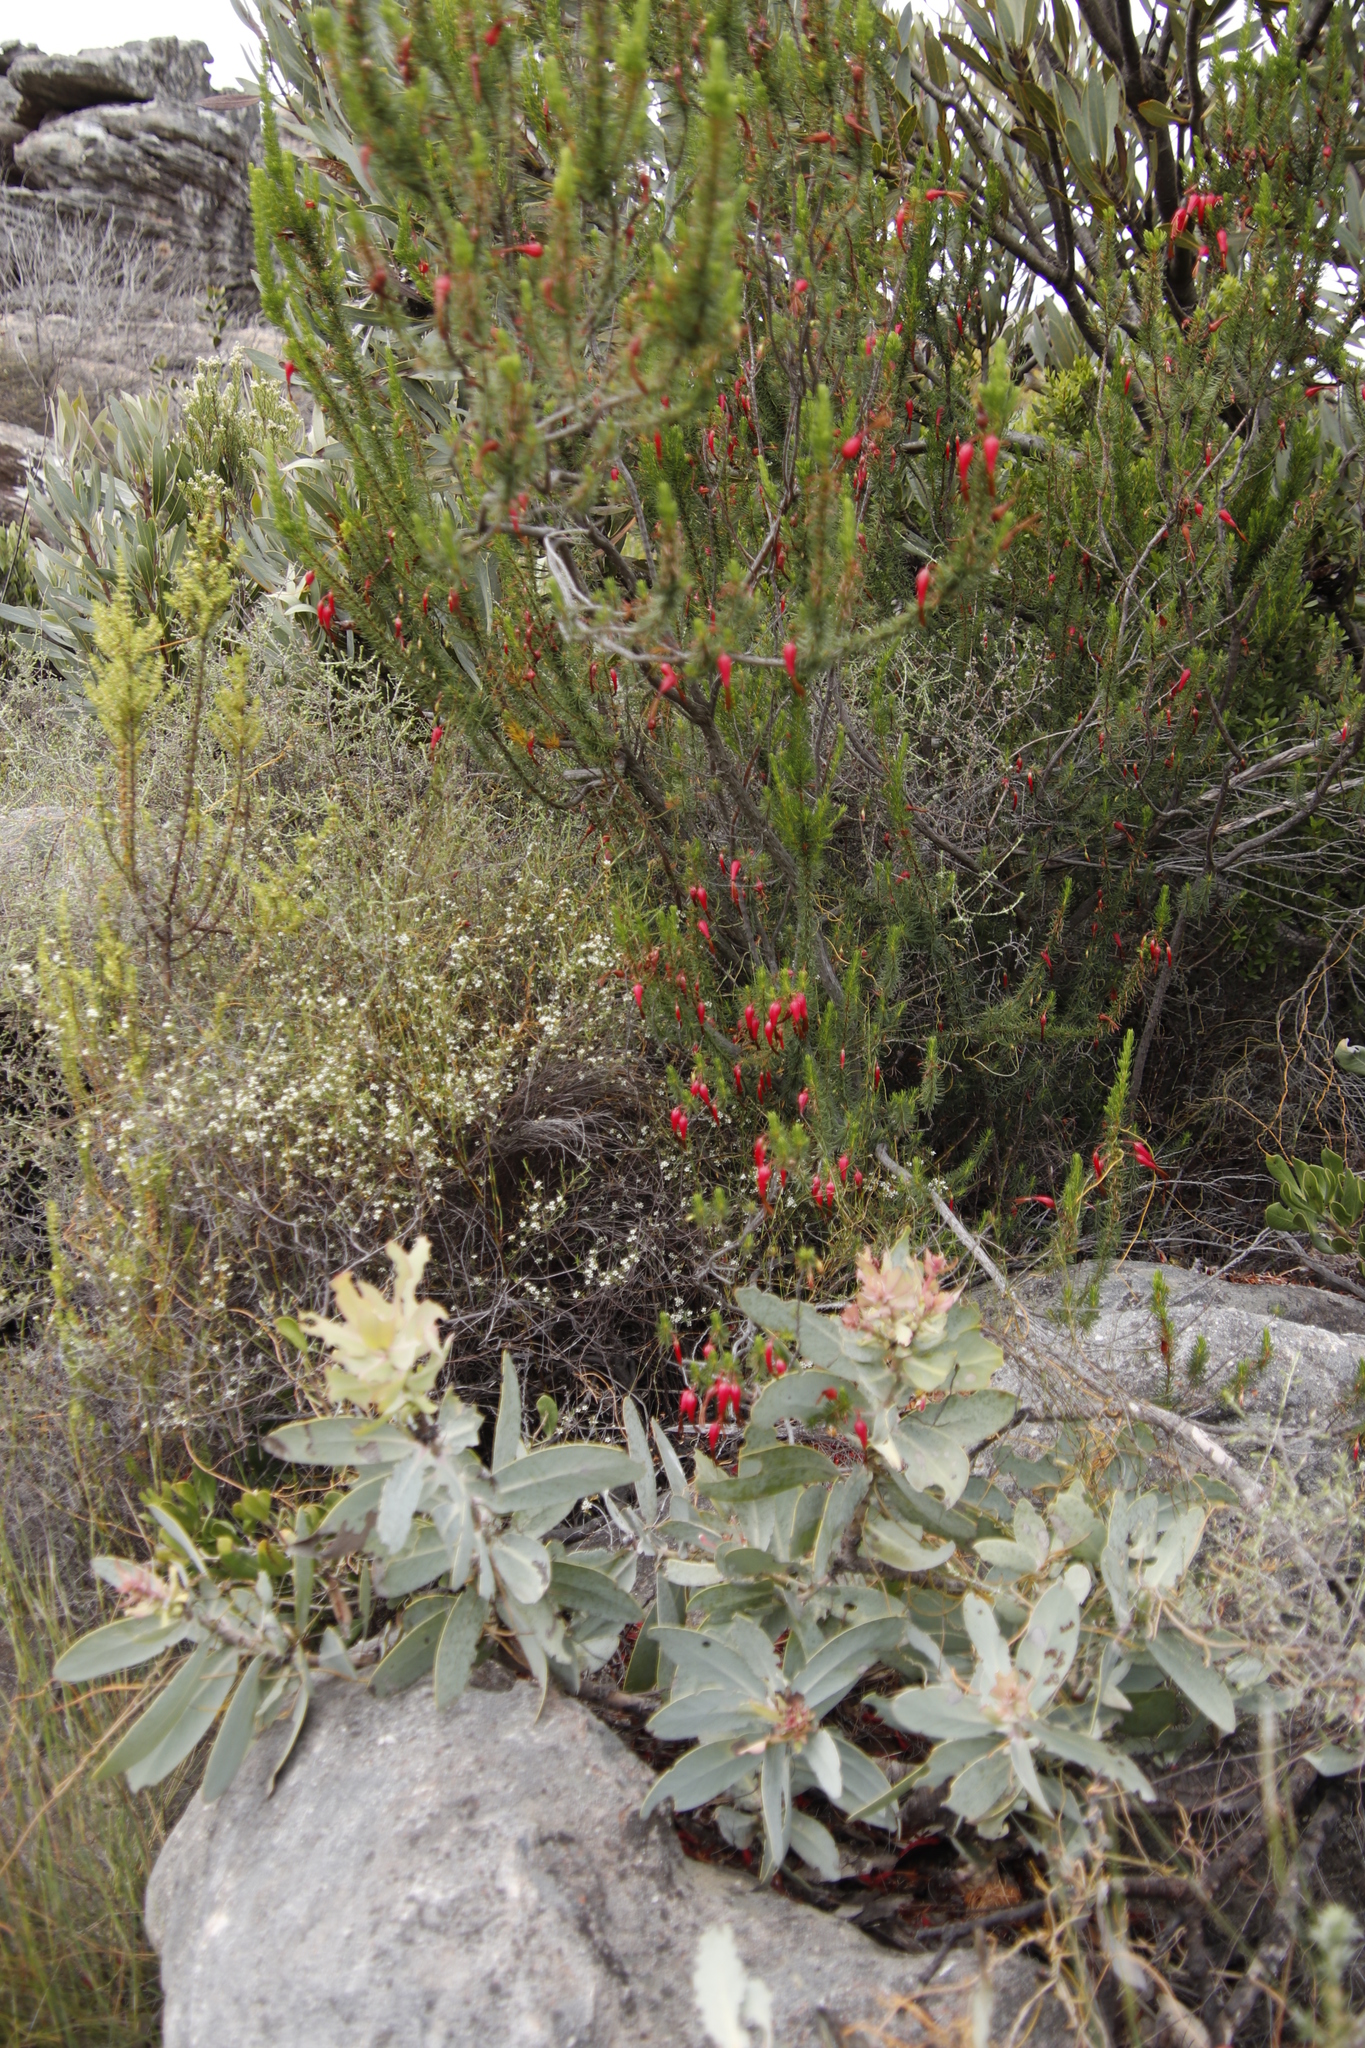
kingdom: Plantae
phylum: Tracheophyta
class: Magnoliopsida
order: Ericales
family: Ericaceae
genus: Erica
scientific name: Erica plukenetii
